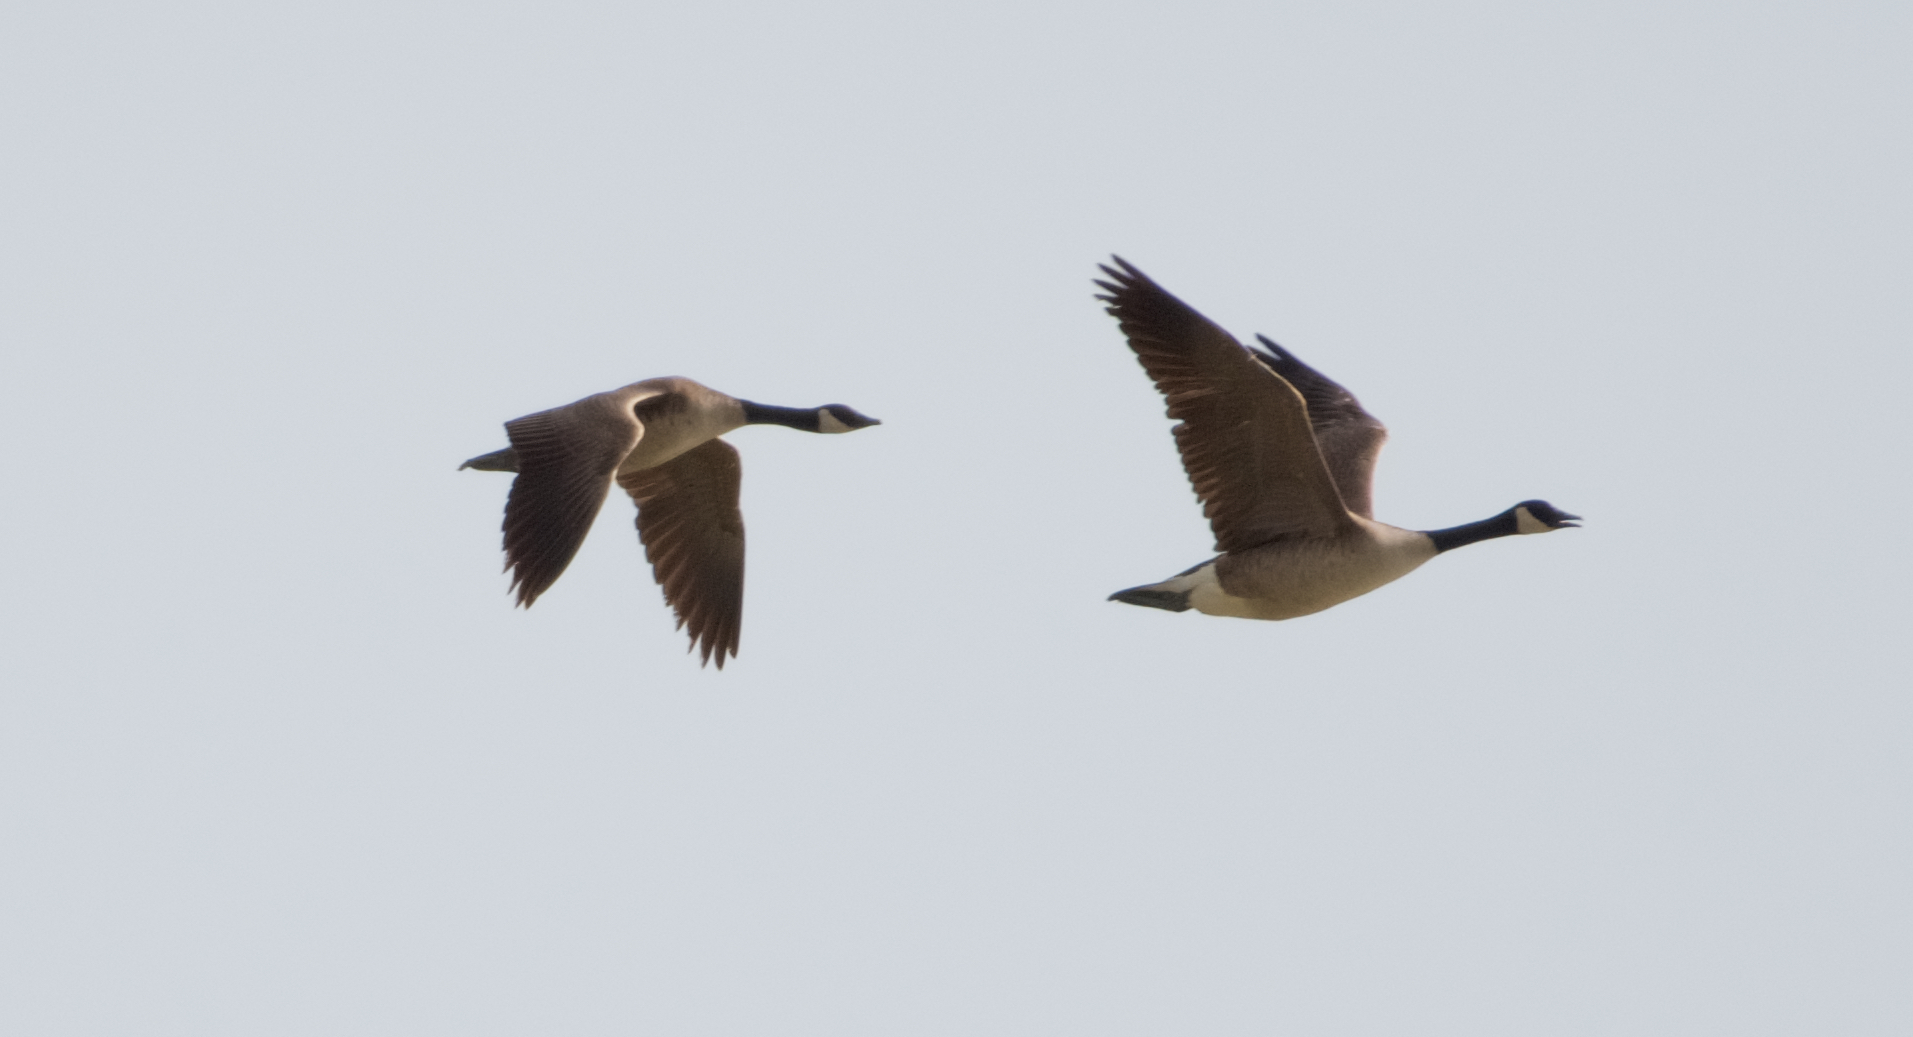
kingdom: Animalia
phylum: Chordata
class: Aves
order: Anseriformes
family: Anatidae
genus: Branta
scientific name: Branta canadensis
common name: Canada goose
